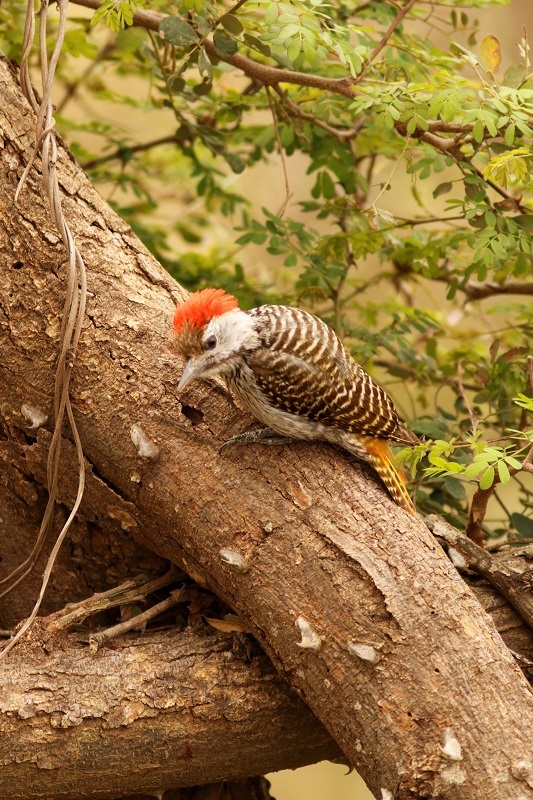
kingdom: Animalia
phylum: Chordata
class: Aves
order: Piciformes
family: Picidae
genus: Dendropicos
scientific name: Dendropicos fuscescens
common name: Cardinal woodpecker
